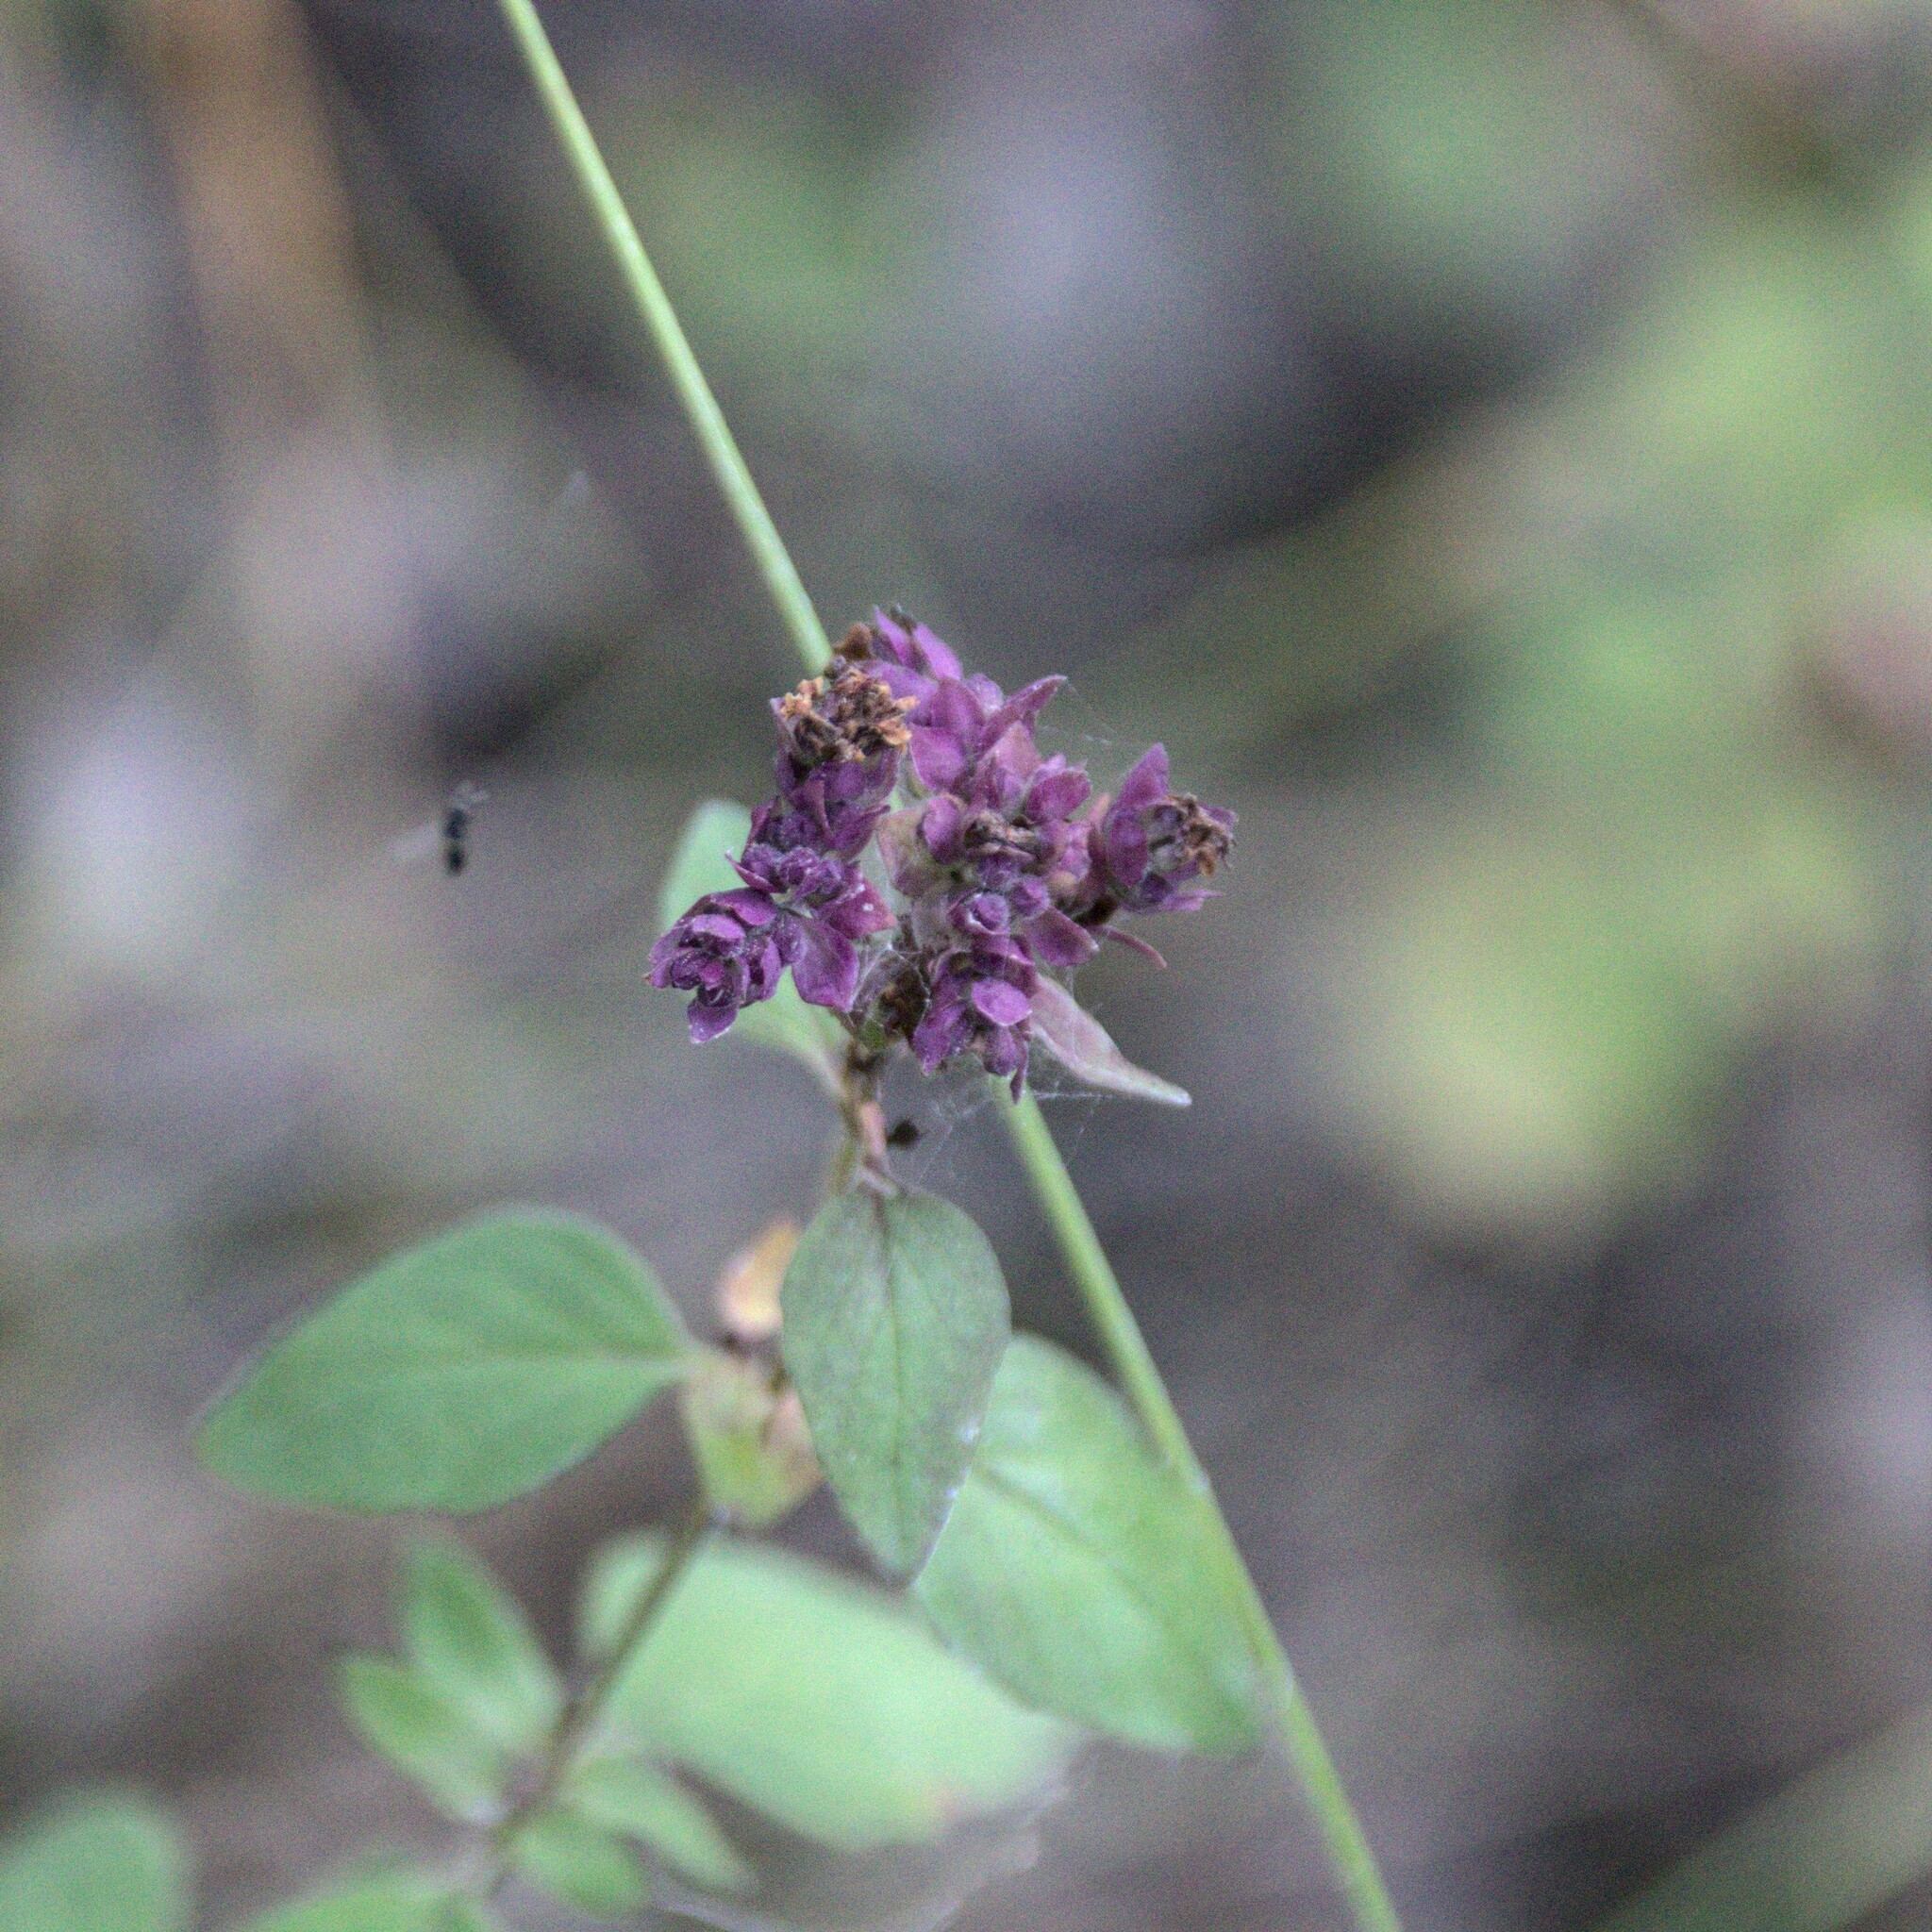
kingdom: Plantae
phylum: Tracheophyta
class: Magnoliopsida
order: Lamiales
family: Lamiaceae
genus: Origanum
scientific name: Origanum vulgare
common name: Wild marjoram
